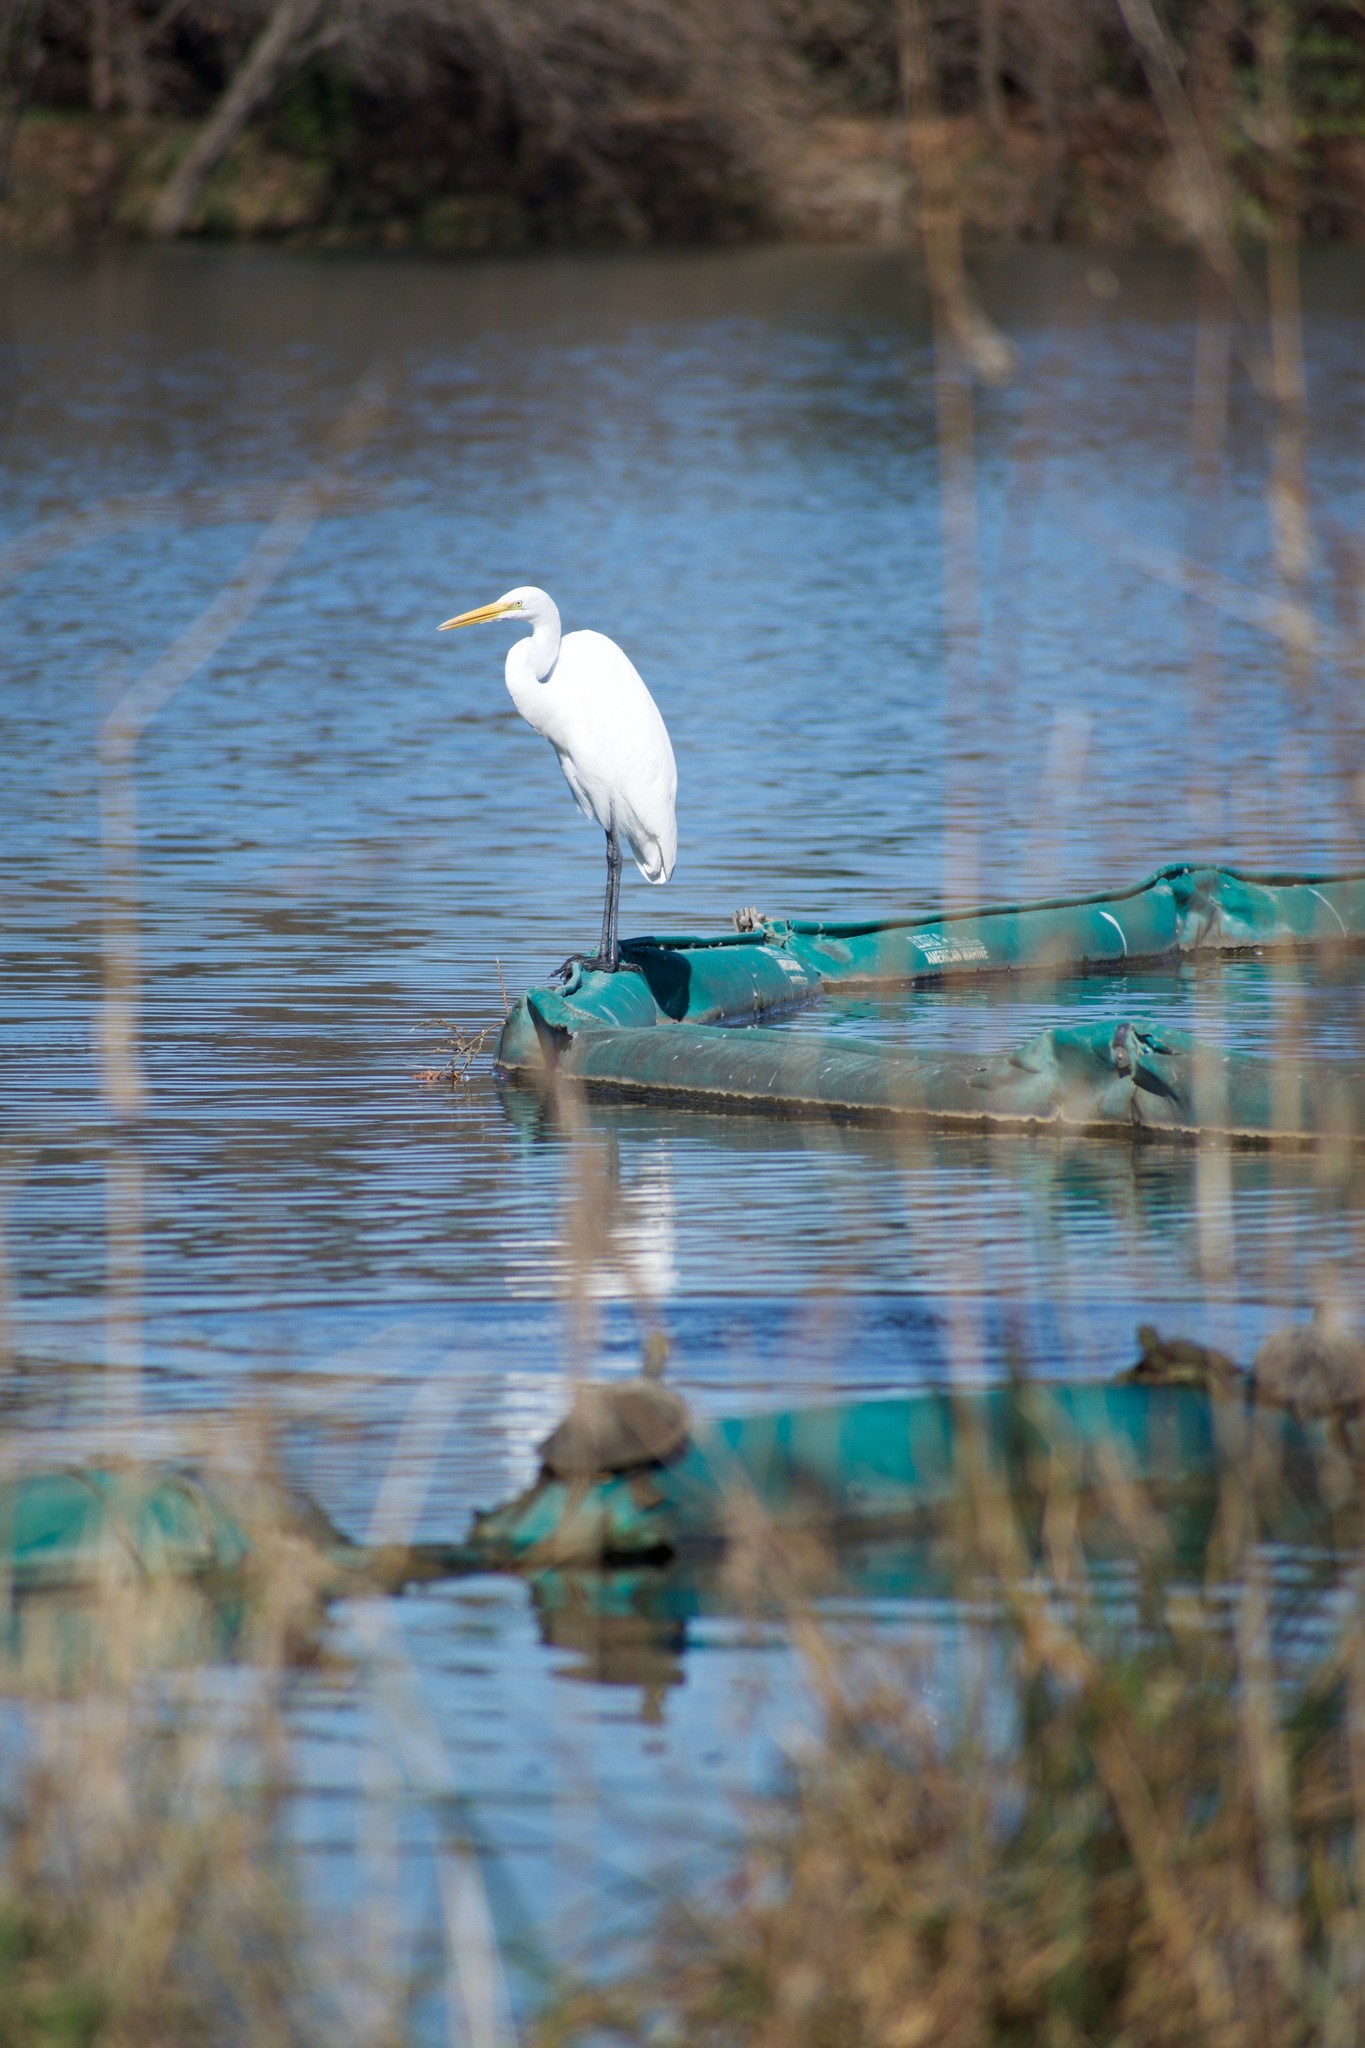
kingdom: Animalia
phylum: Chordata
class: Aves
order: Pelecaniformes
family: Ardeidae
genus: Ardea
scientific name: Ardea alba
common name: Great egret
